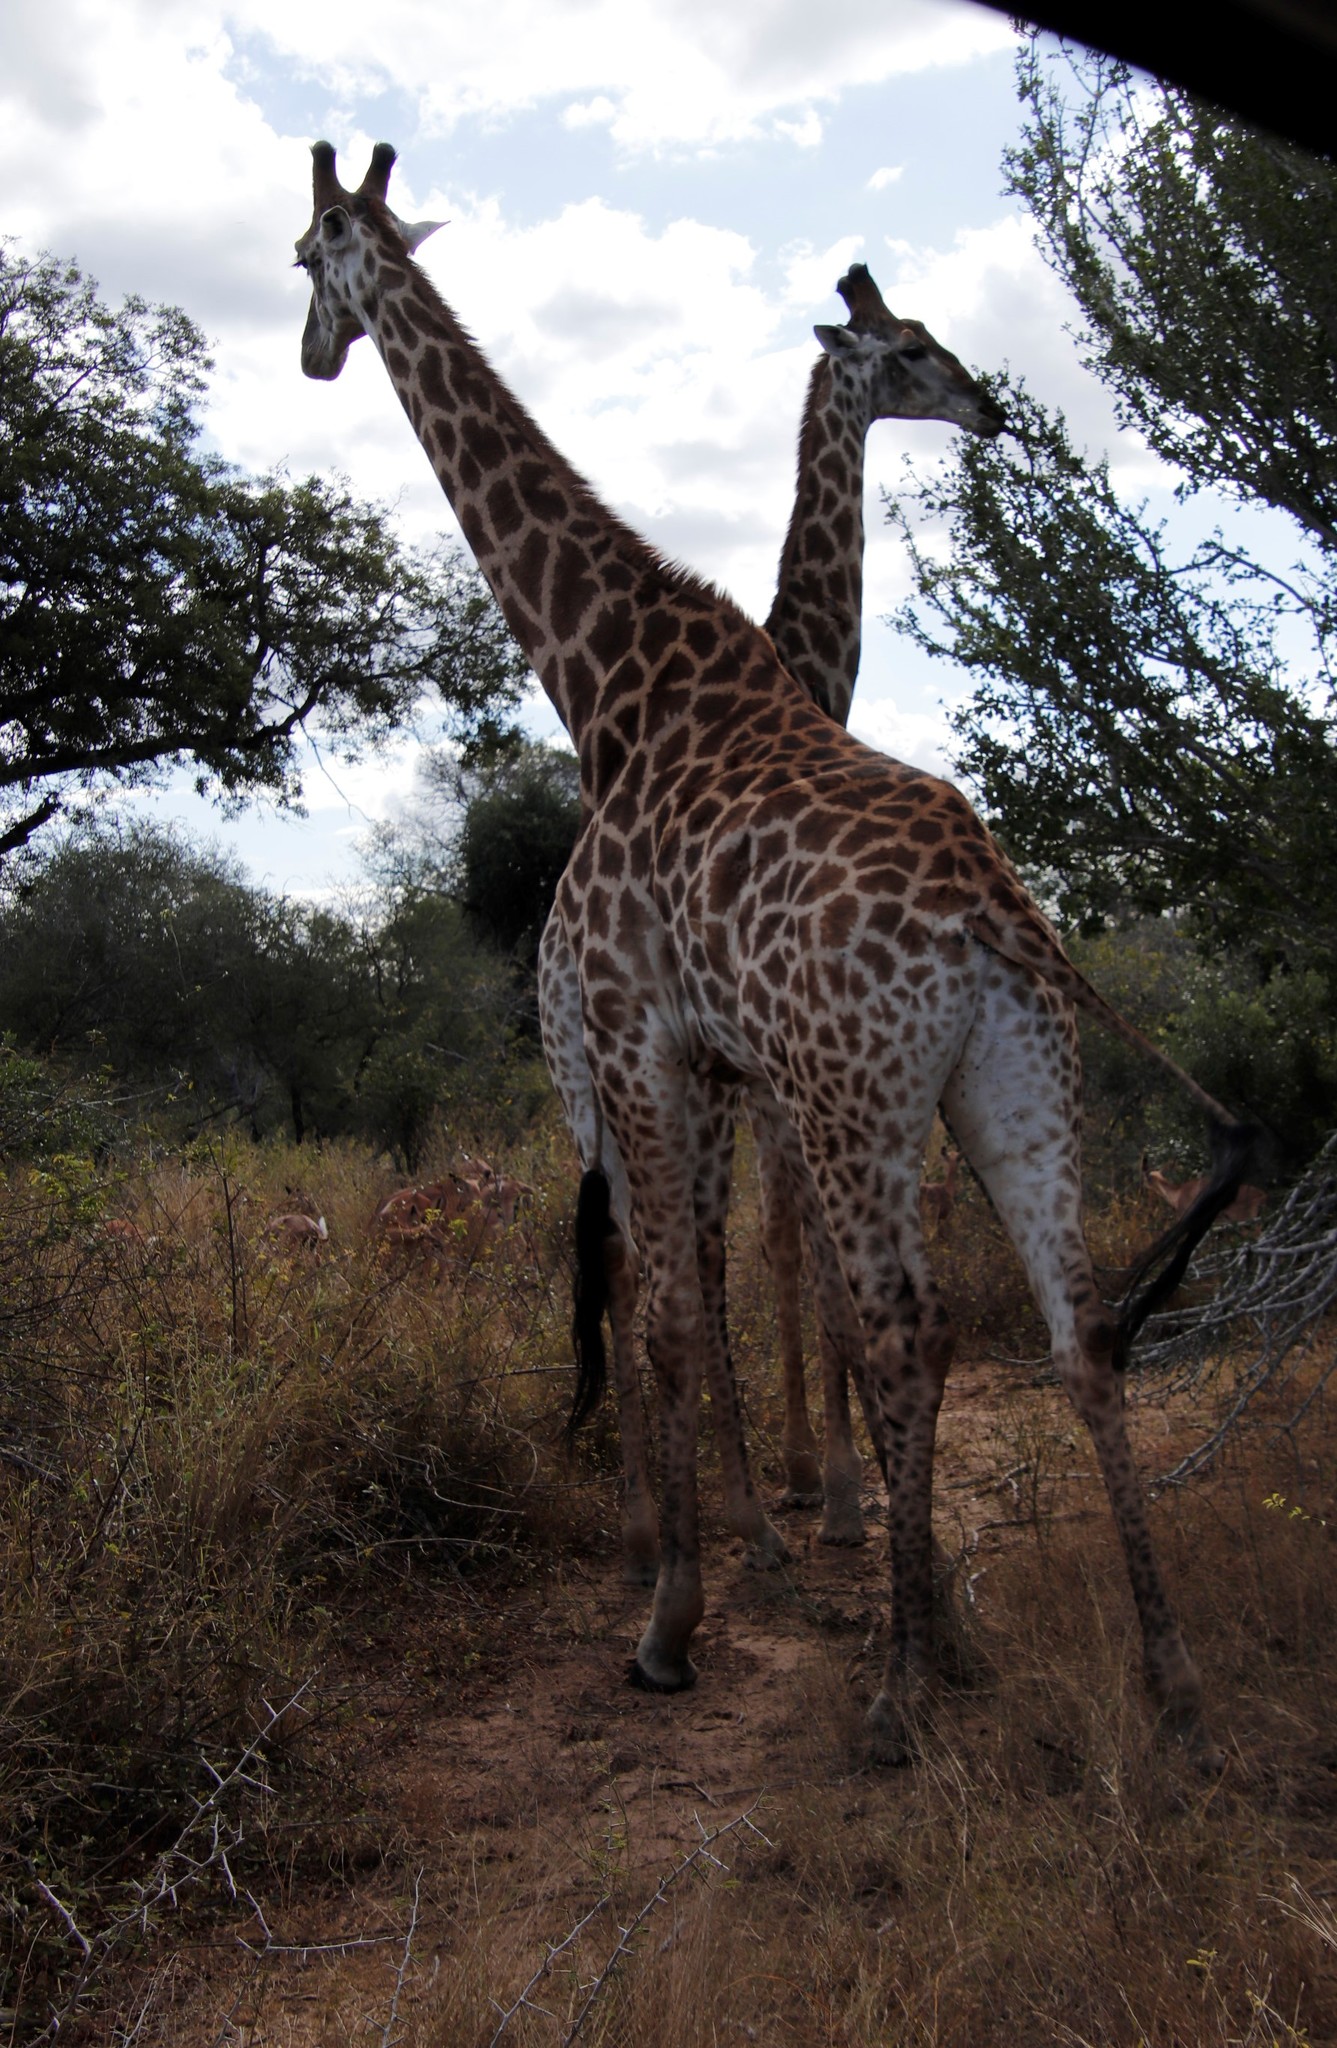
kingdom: Animalia
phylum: Chordata
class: Mammalia
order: Artiodactyla
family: Giraffidae
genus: Giraffa
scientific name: Giraffa giraffa
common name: Southern giraffe
